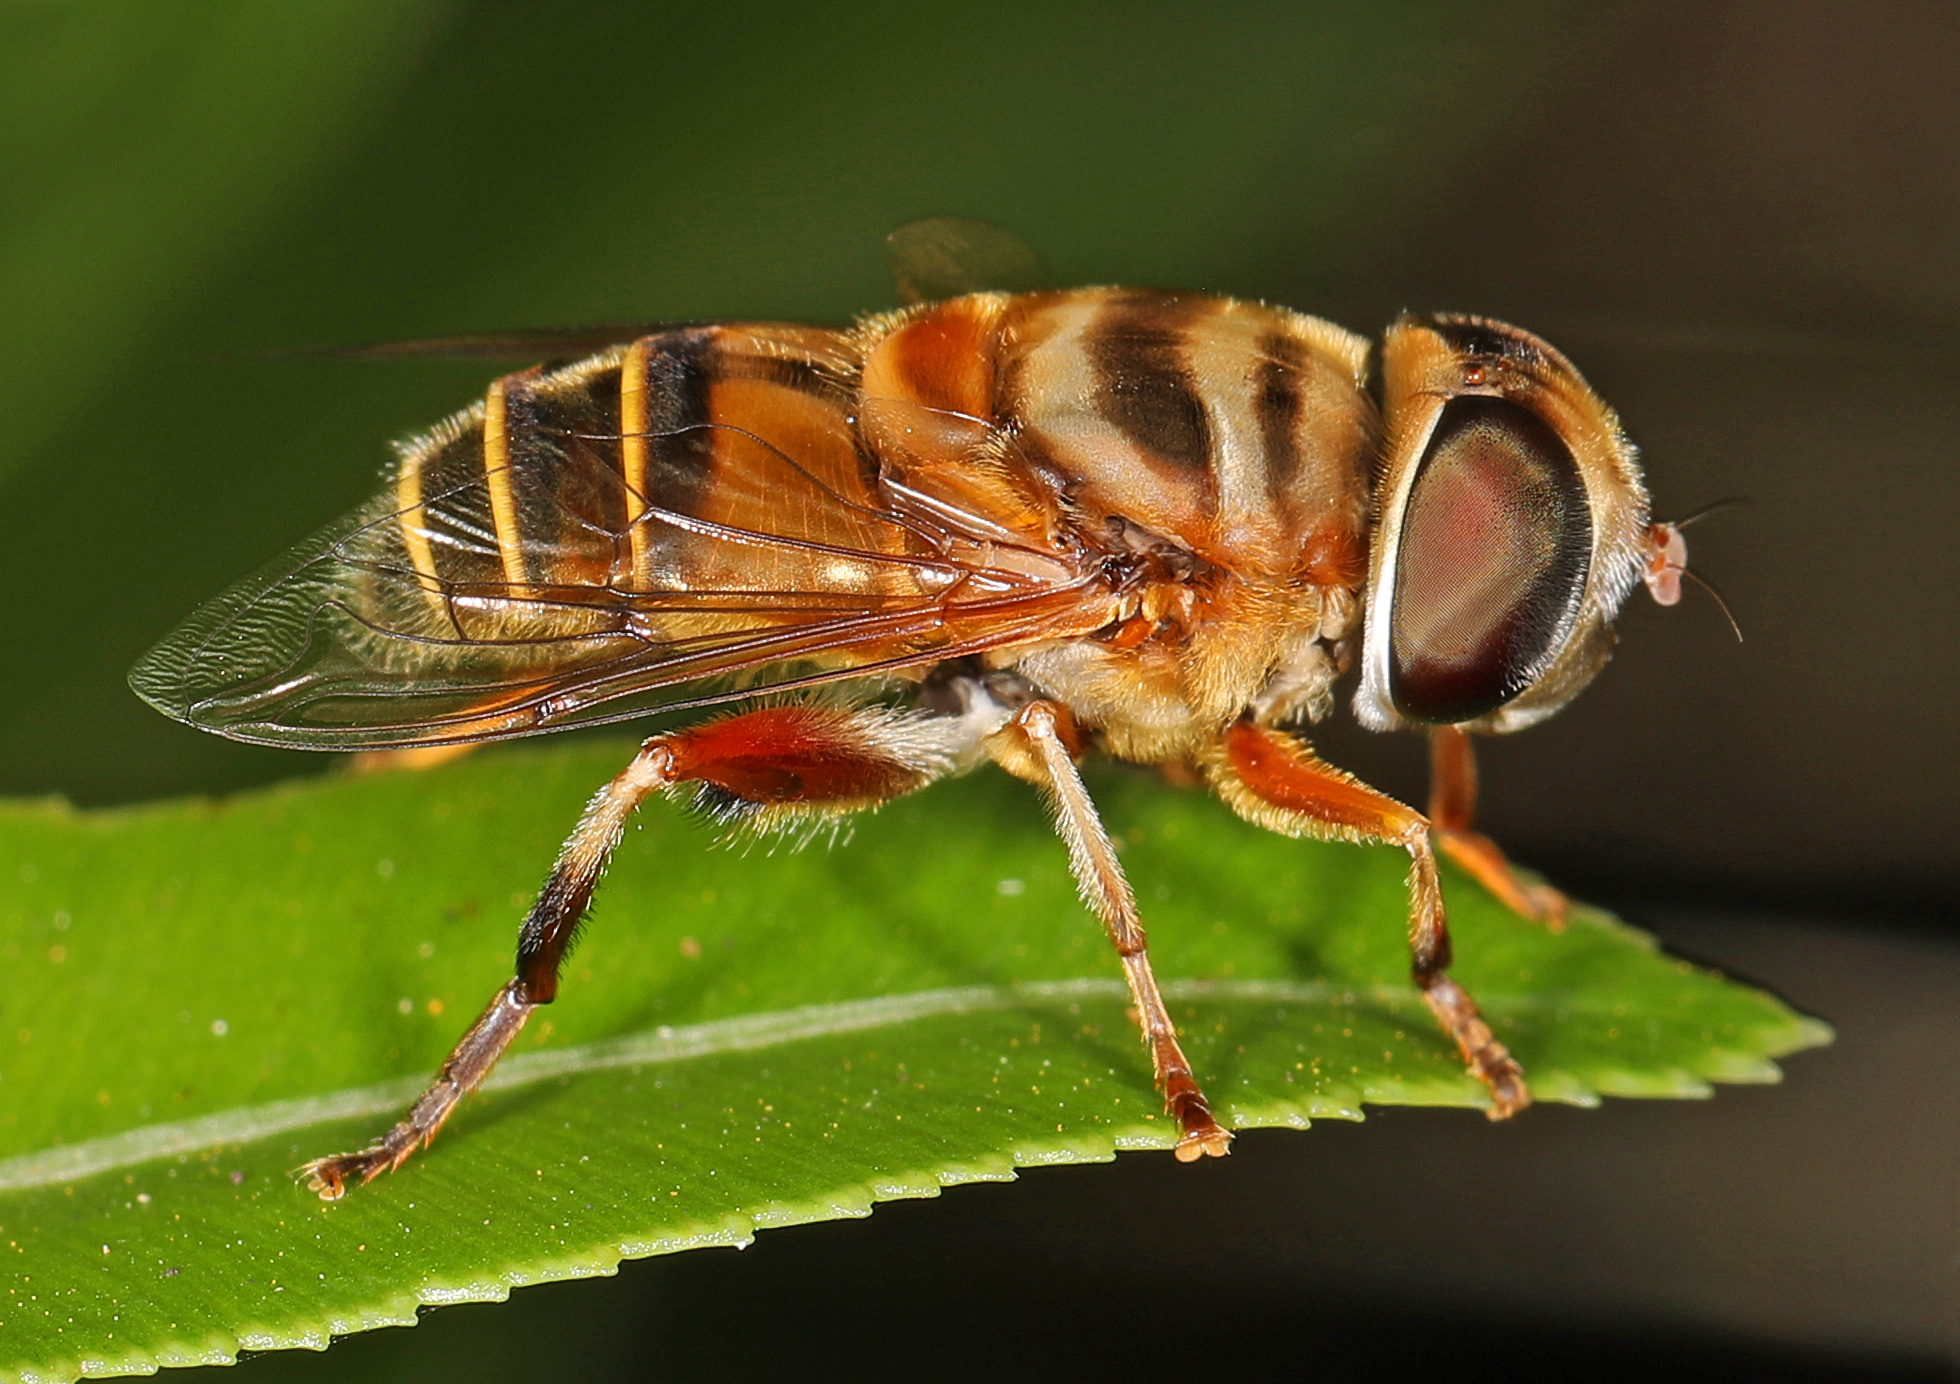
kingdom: Animalia
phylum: Arthropoda
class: Insecta
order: Diptera
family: Syrphidae
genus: Palpada
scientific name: Palpada vinetorum
